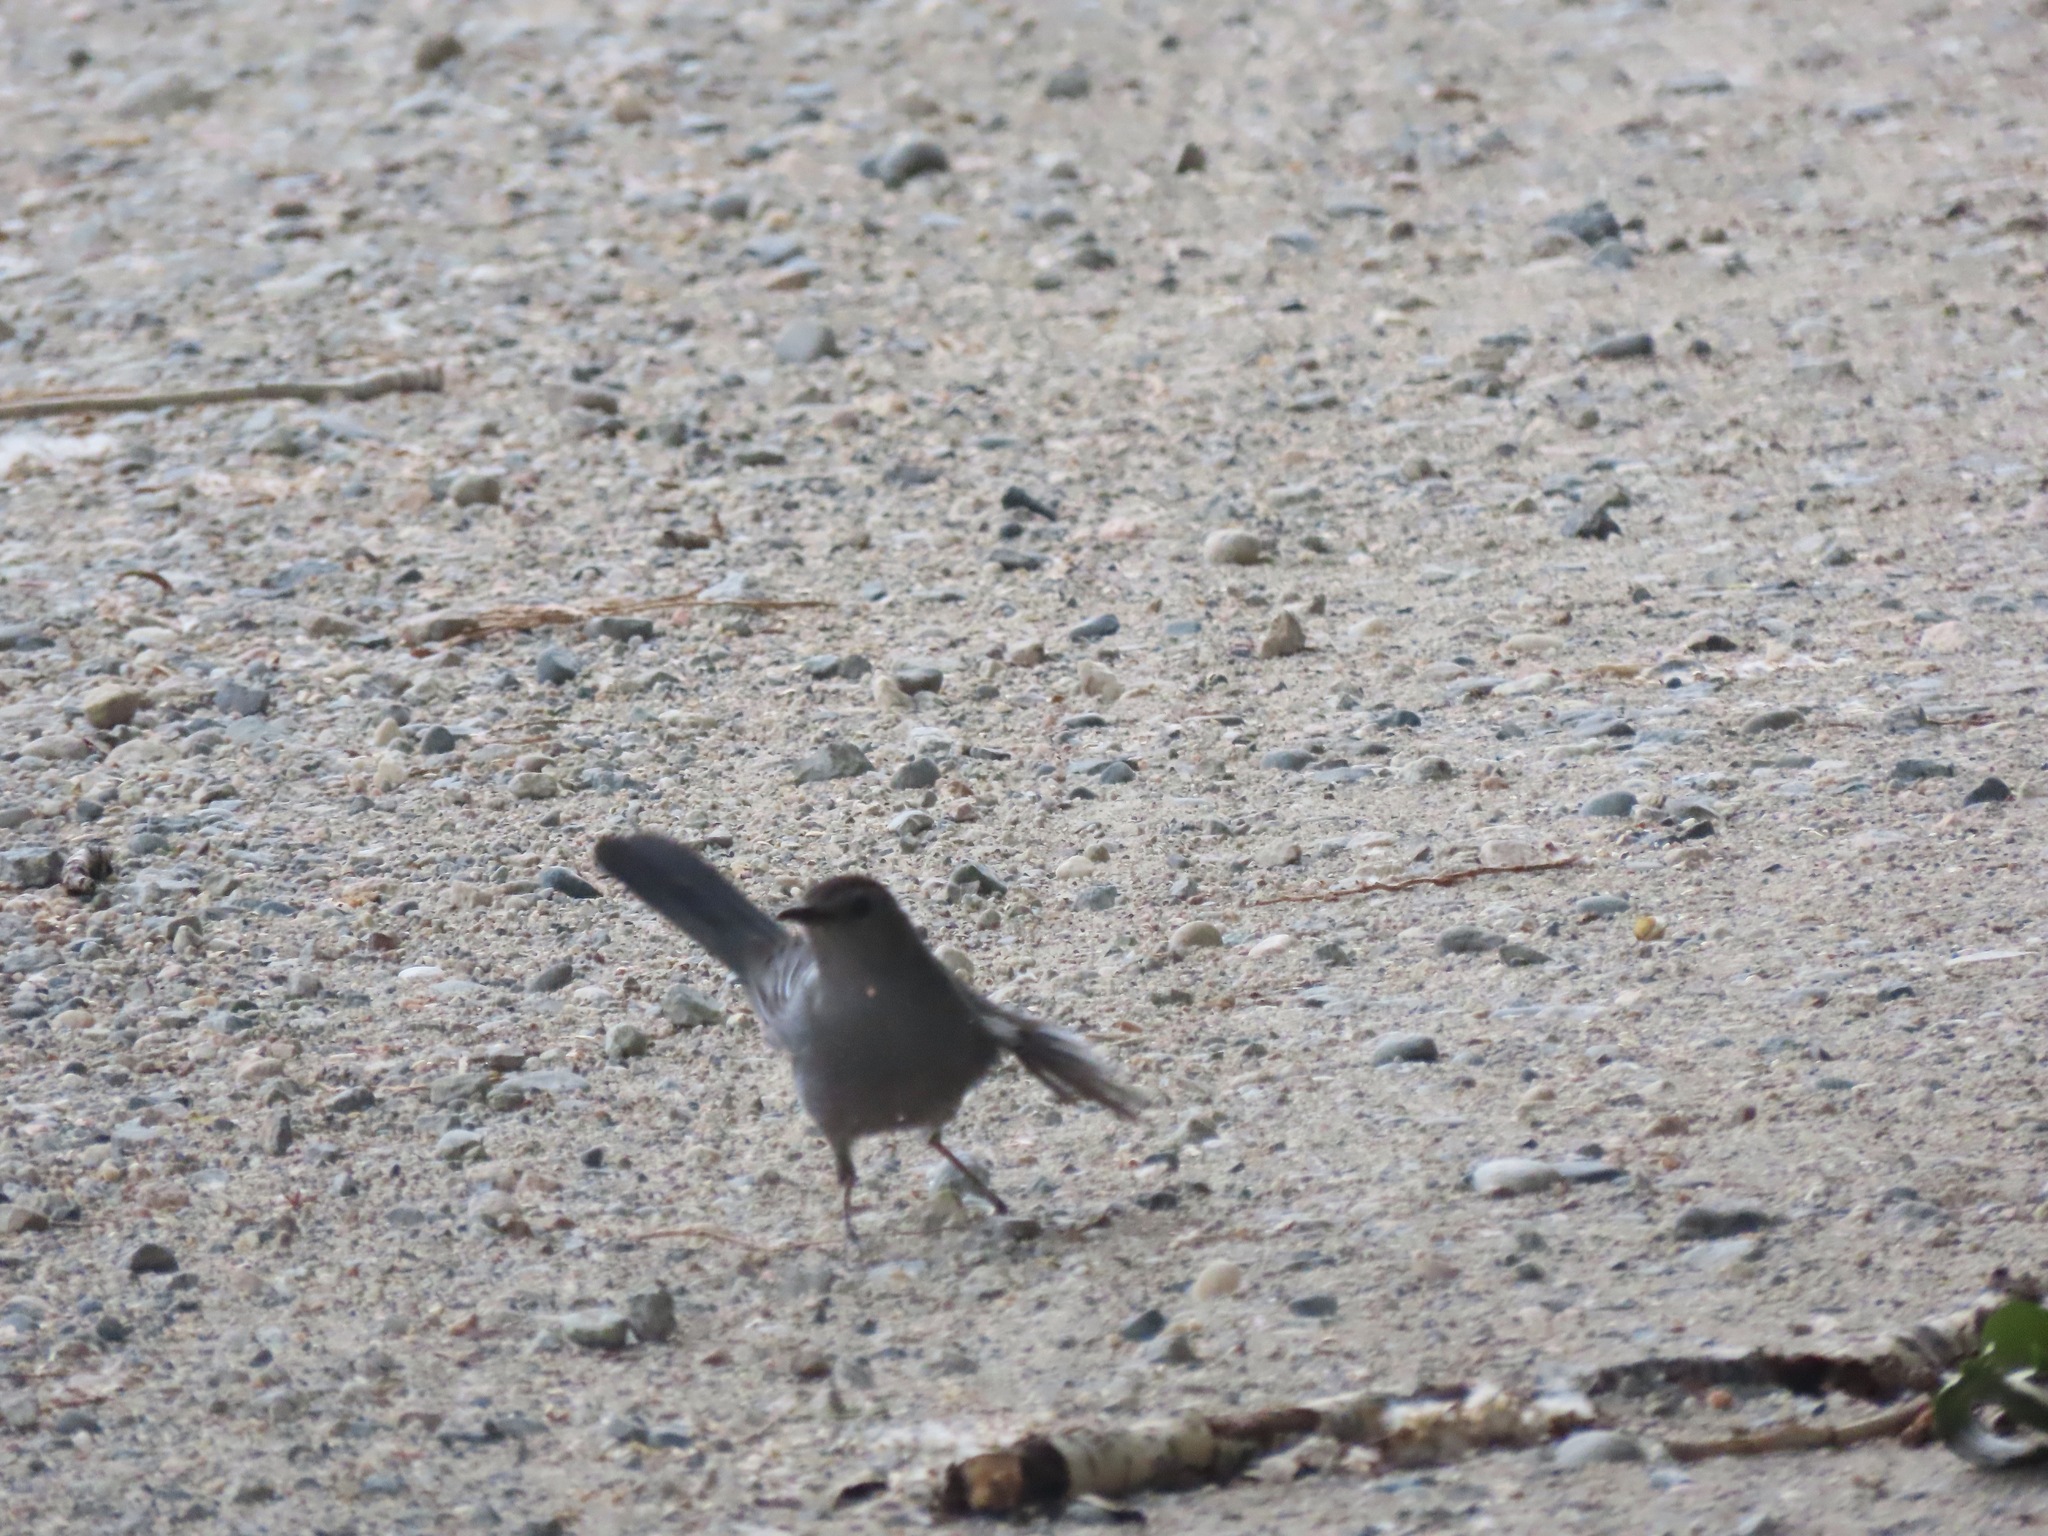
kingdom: Animalia
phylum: Chordata
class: Aves
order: Passeriformes
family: Mimidae
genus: Dumetella
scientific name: Dumetella carolinensis
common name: Gray catbird
